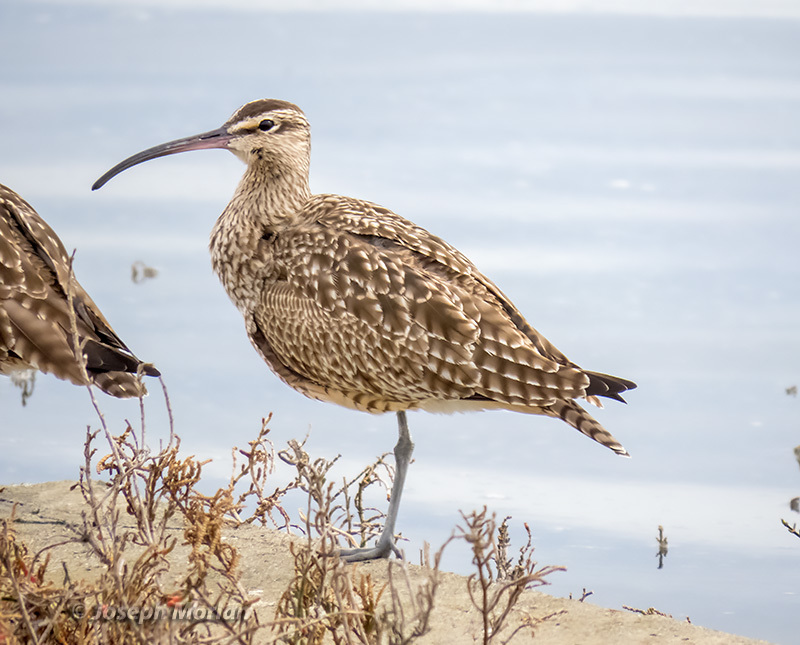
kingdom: Animalia
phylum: Chordata
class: Aves
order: Charadriiformes
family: Scolopacidae
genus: Numenius
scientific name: Numenius phaeopus
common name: Whimbrel
